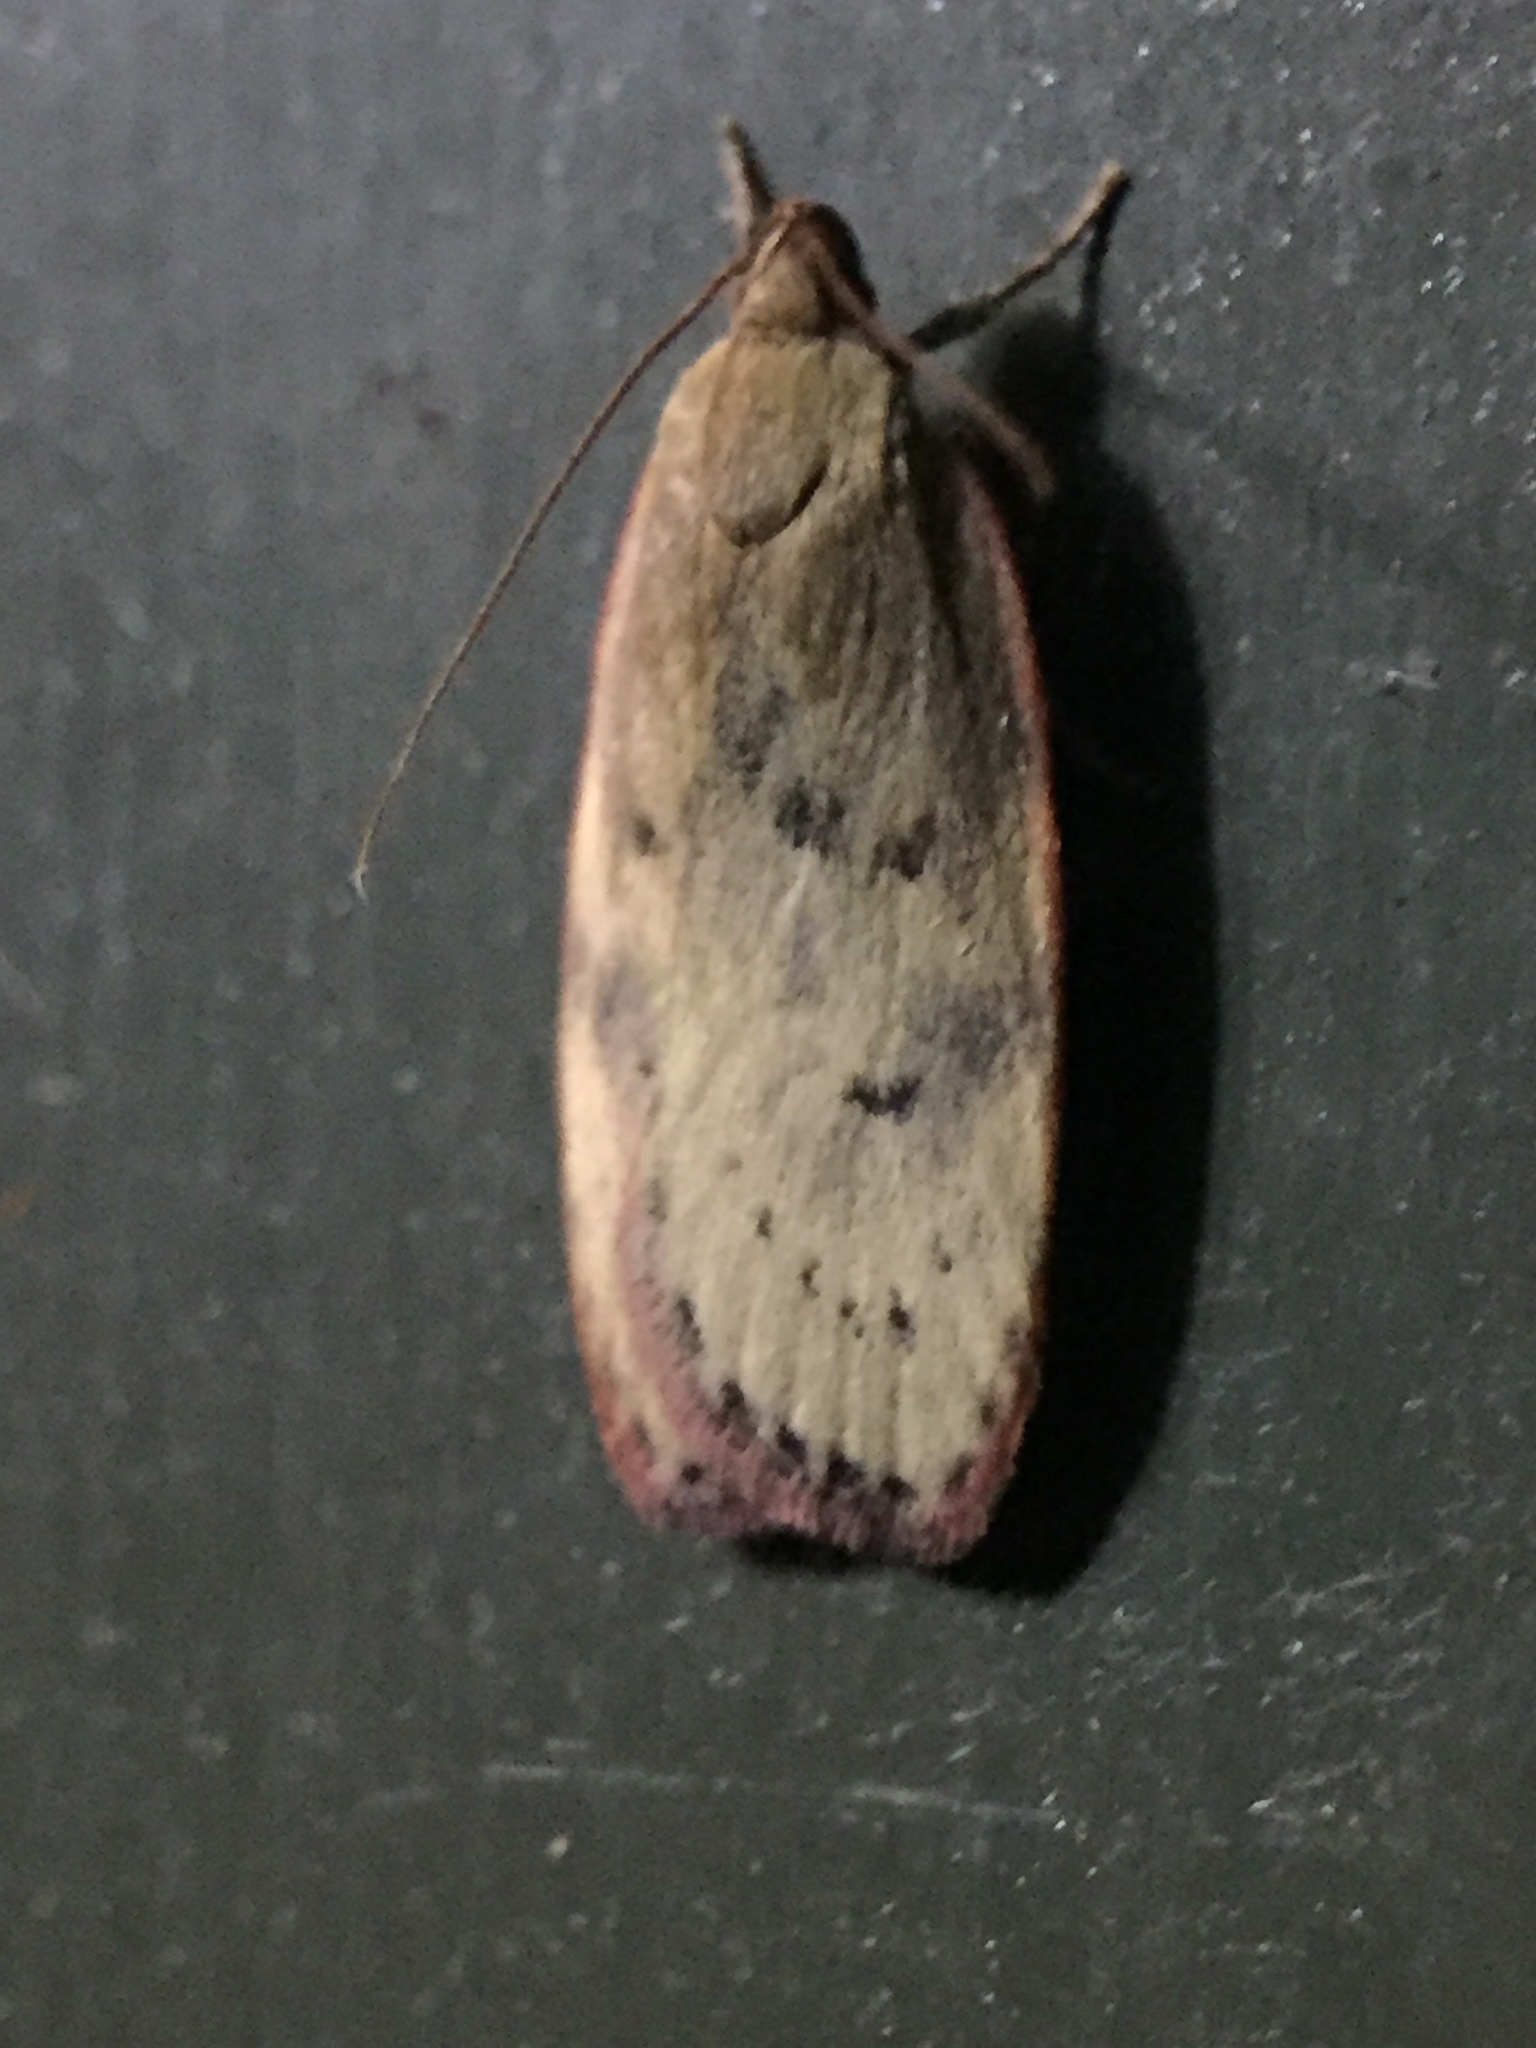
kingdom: Animalia
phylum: Arthropoda
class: Insecta
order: Lepidoptera
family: Depressariidae
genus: Phaeosaces
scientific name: Phaeosaces coarctatella
